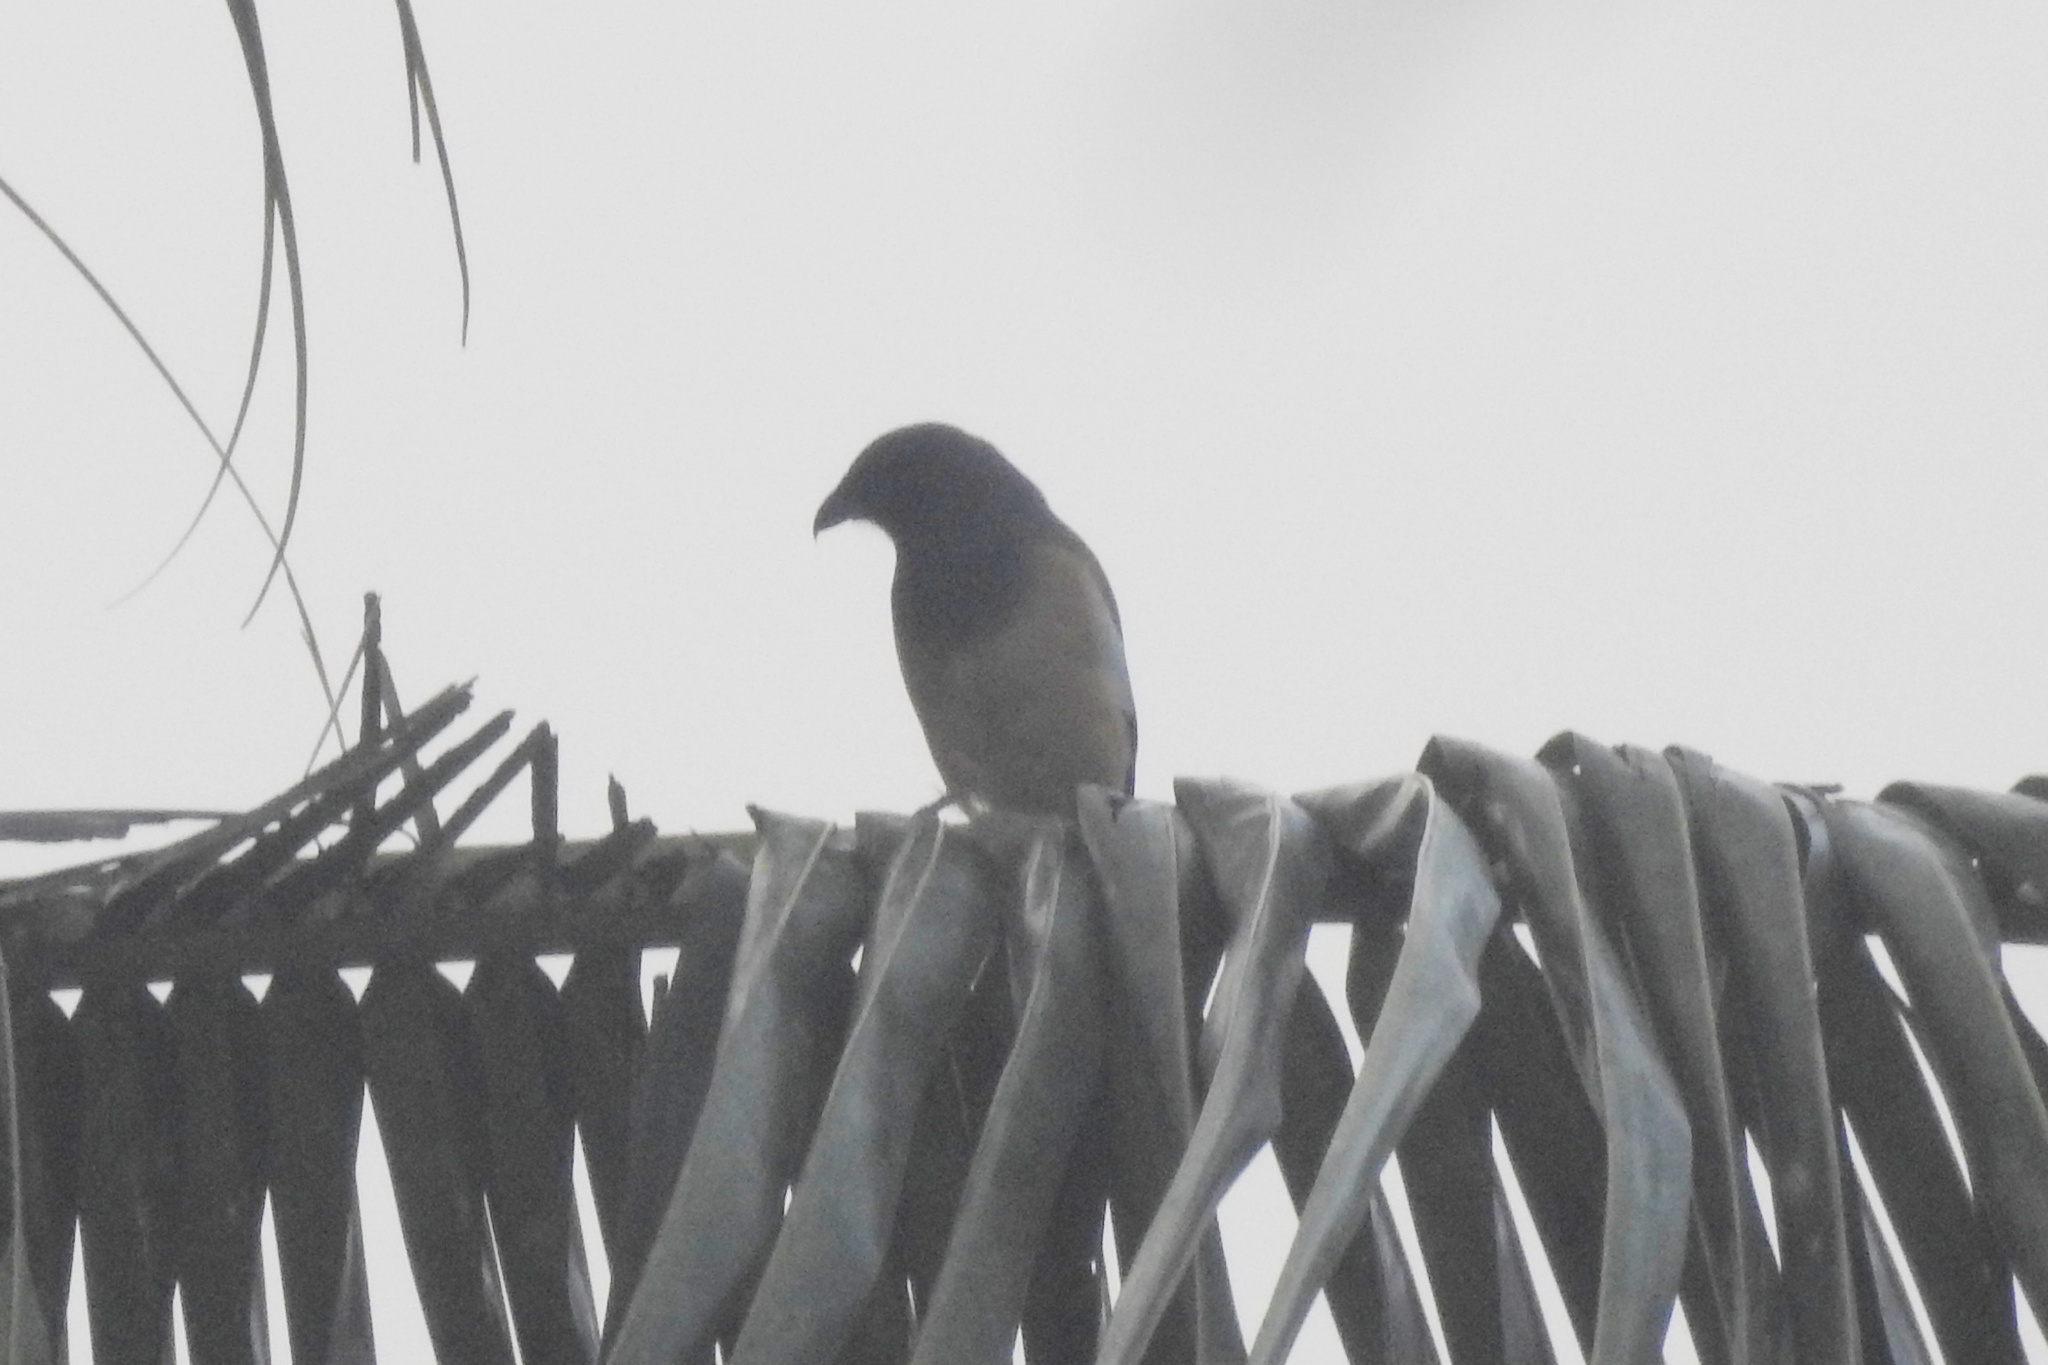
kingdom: Animalia
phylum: Chordata
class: Aves
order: Passeriformes
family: Corvidae
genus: Dendrocitta
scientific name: Dendrocitta vagabunda
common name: Rufous treepie
